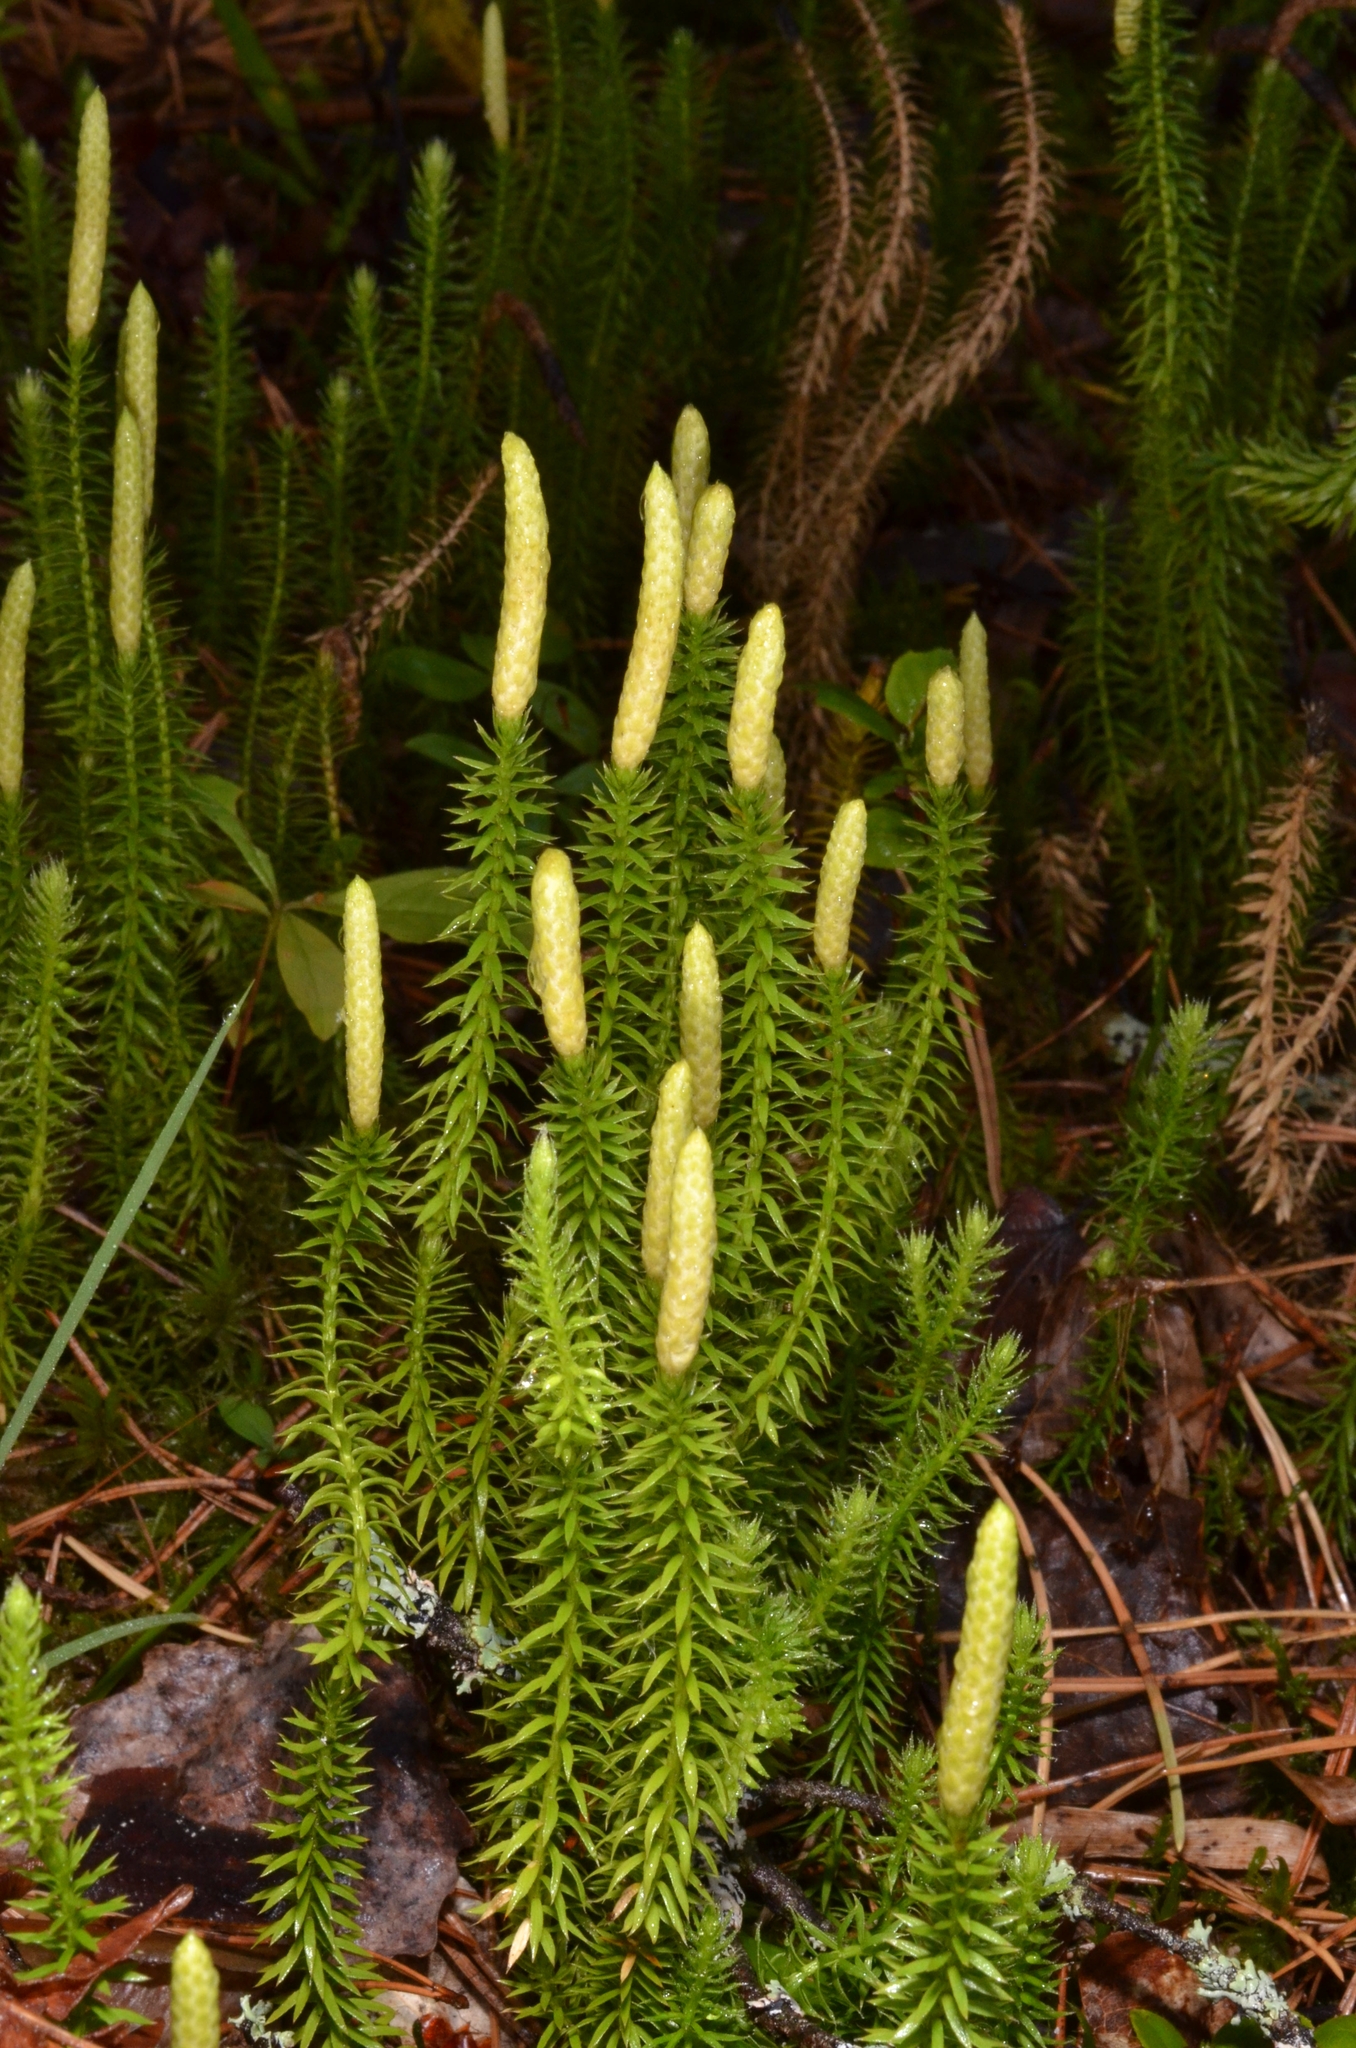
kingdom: Plantae
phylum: Tracheophyta
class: Lycopodiopsida
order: Lycopodiales
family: Lycopodiaceae
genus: Spinulum
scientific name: Spinulum annotinum
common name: Interrupted club-moss
